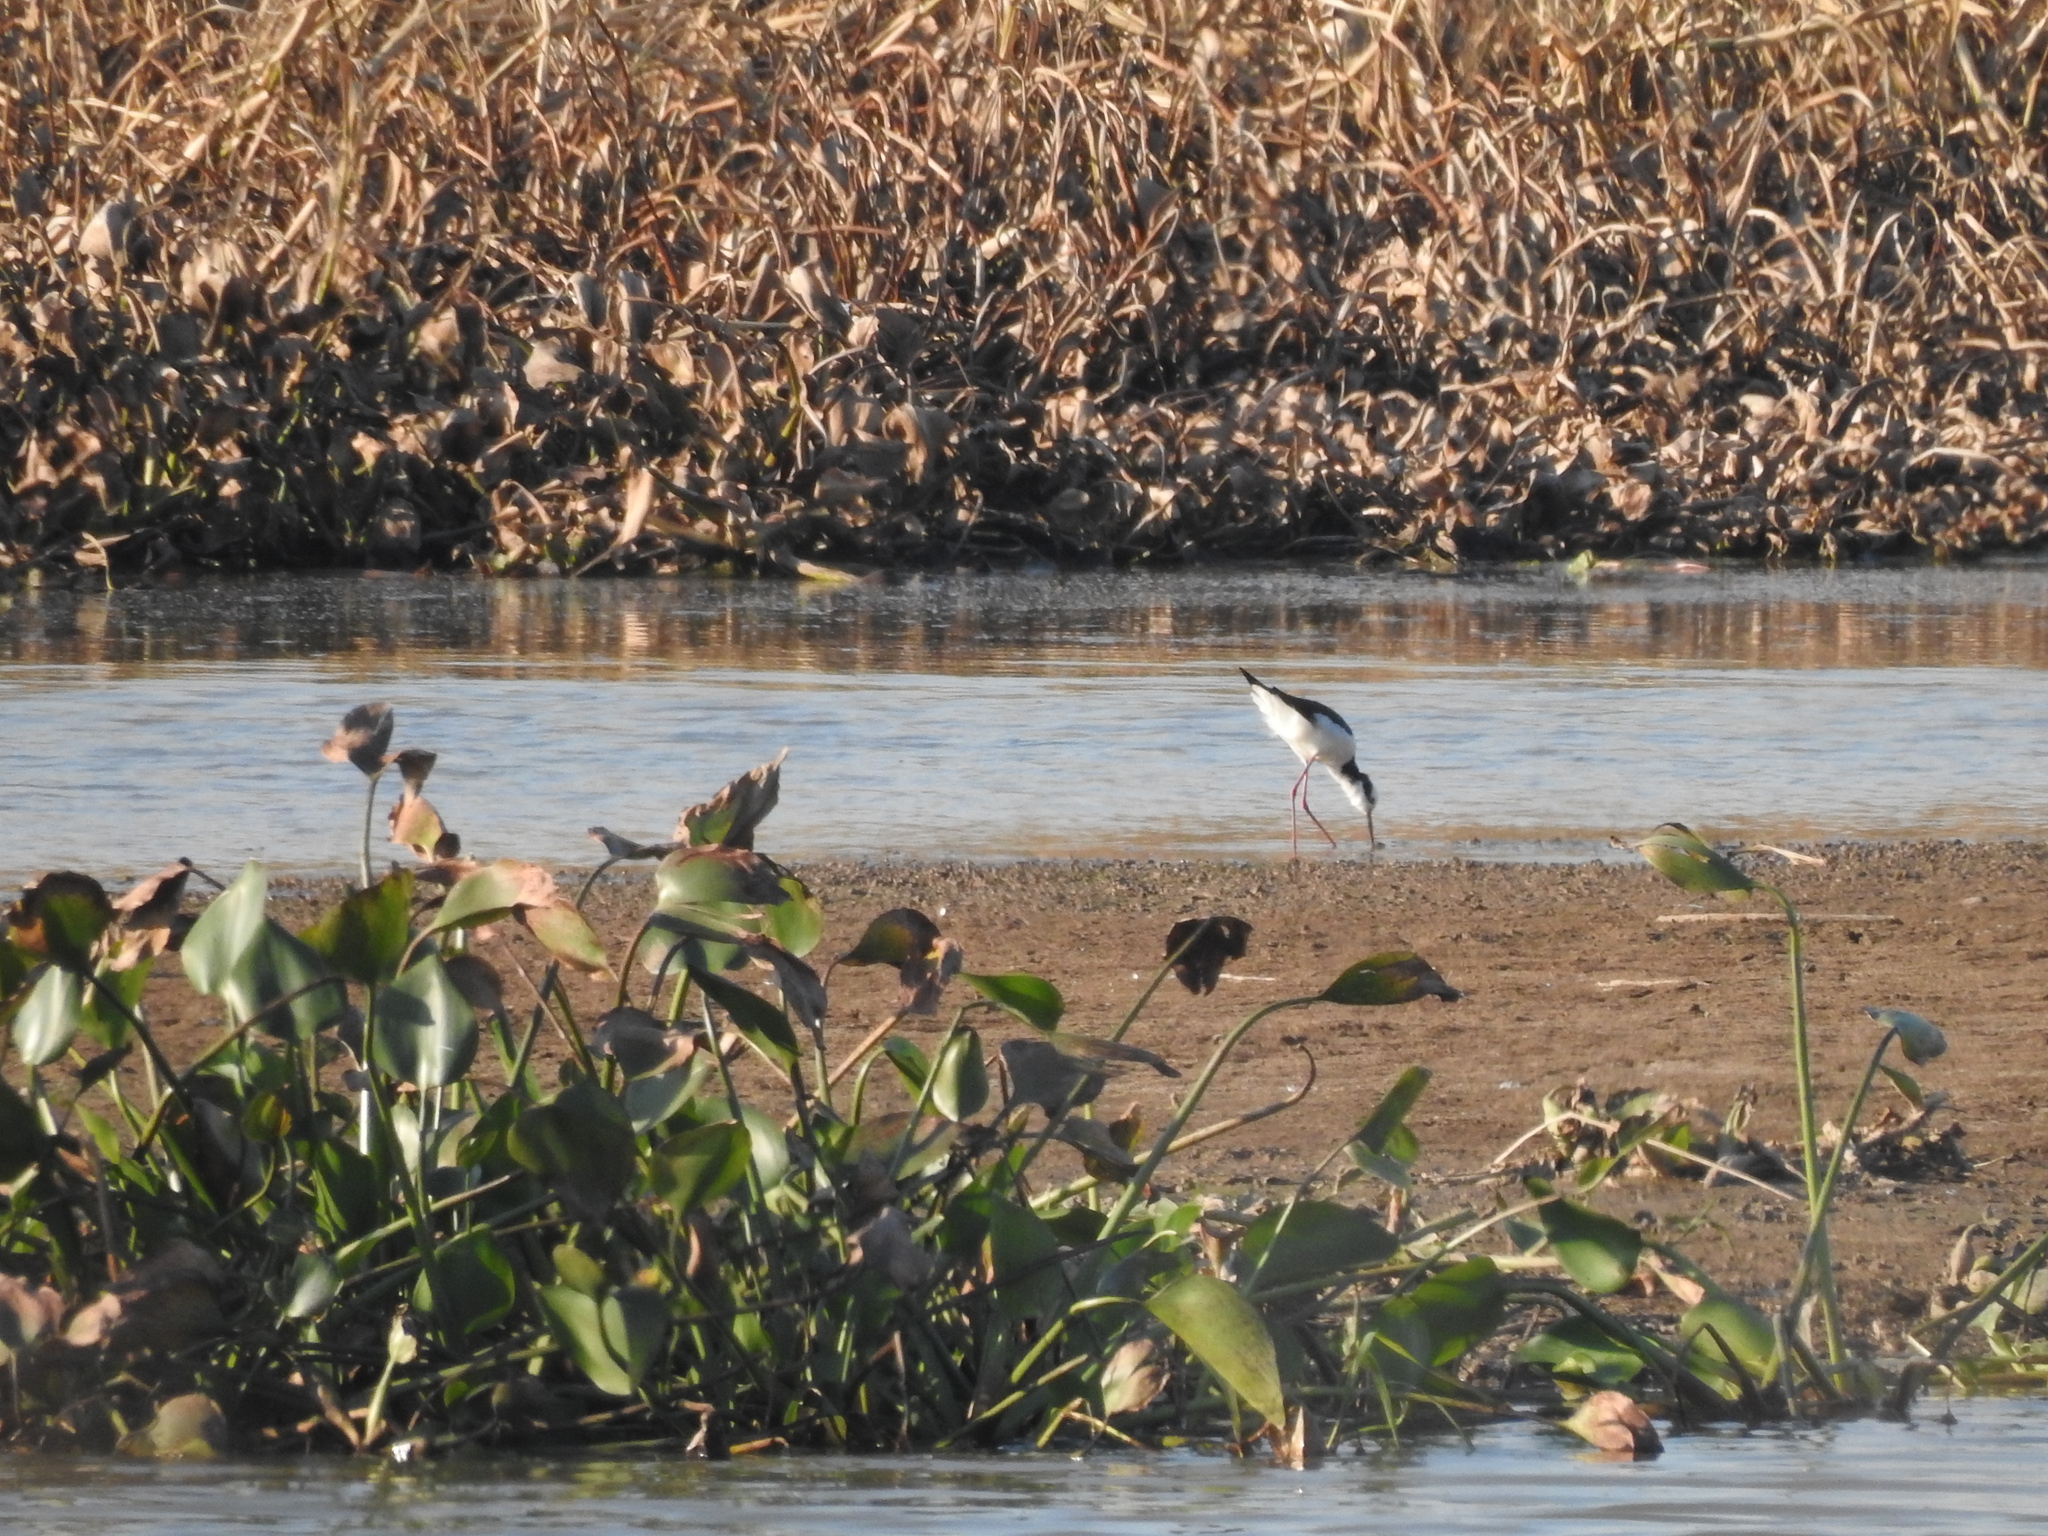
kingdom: Plantae
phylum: Tracheophyta
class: Liliopsida
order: Commelinales
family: Pontederiaceae
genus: Pontederia
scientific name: Pontederia crassipes
